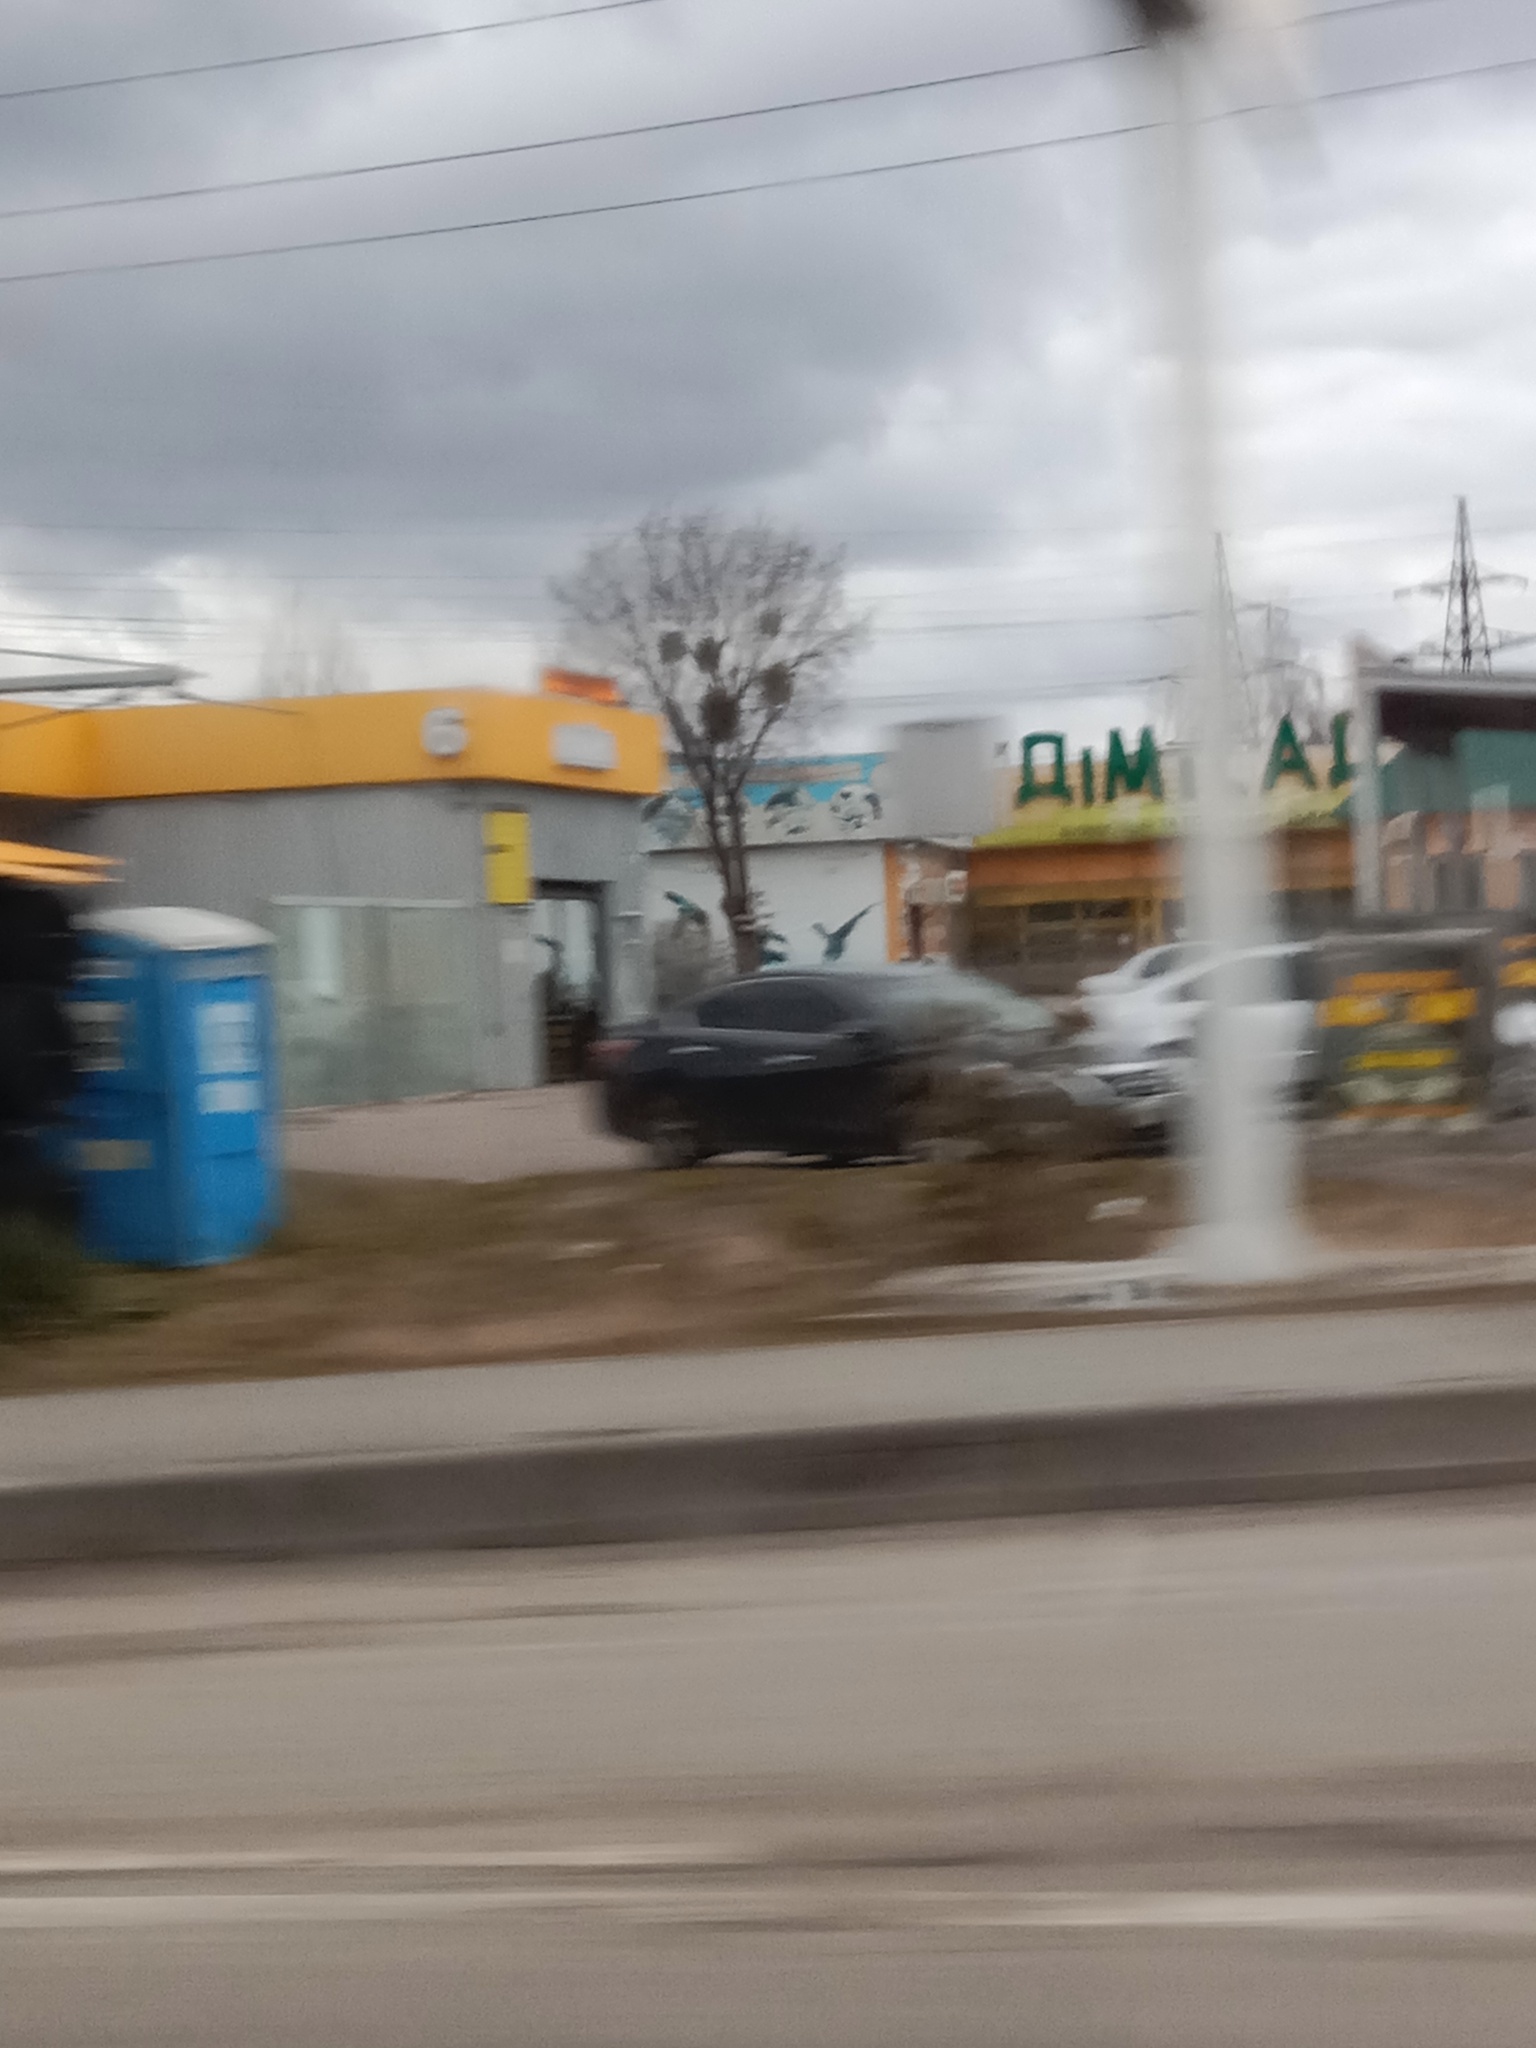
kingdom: Plantae
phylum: Tracheophyta
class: Magnoliopsida
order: Santalales
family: Viscaceae
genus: Viscum
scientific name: Viscum album
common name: Mistletoe
